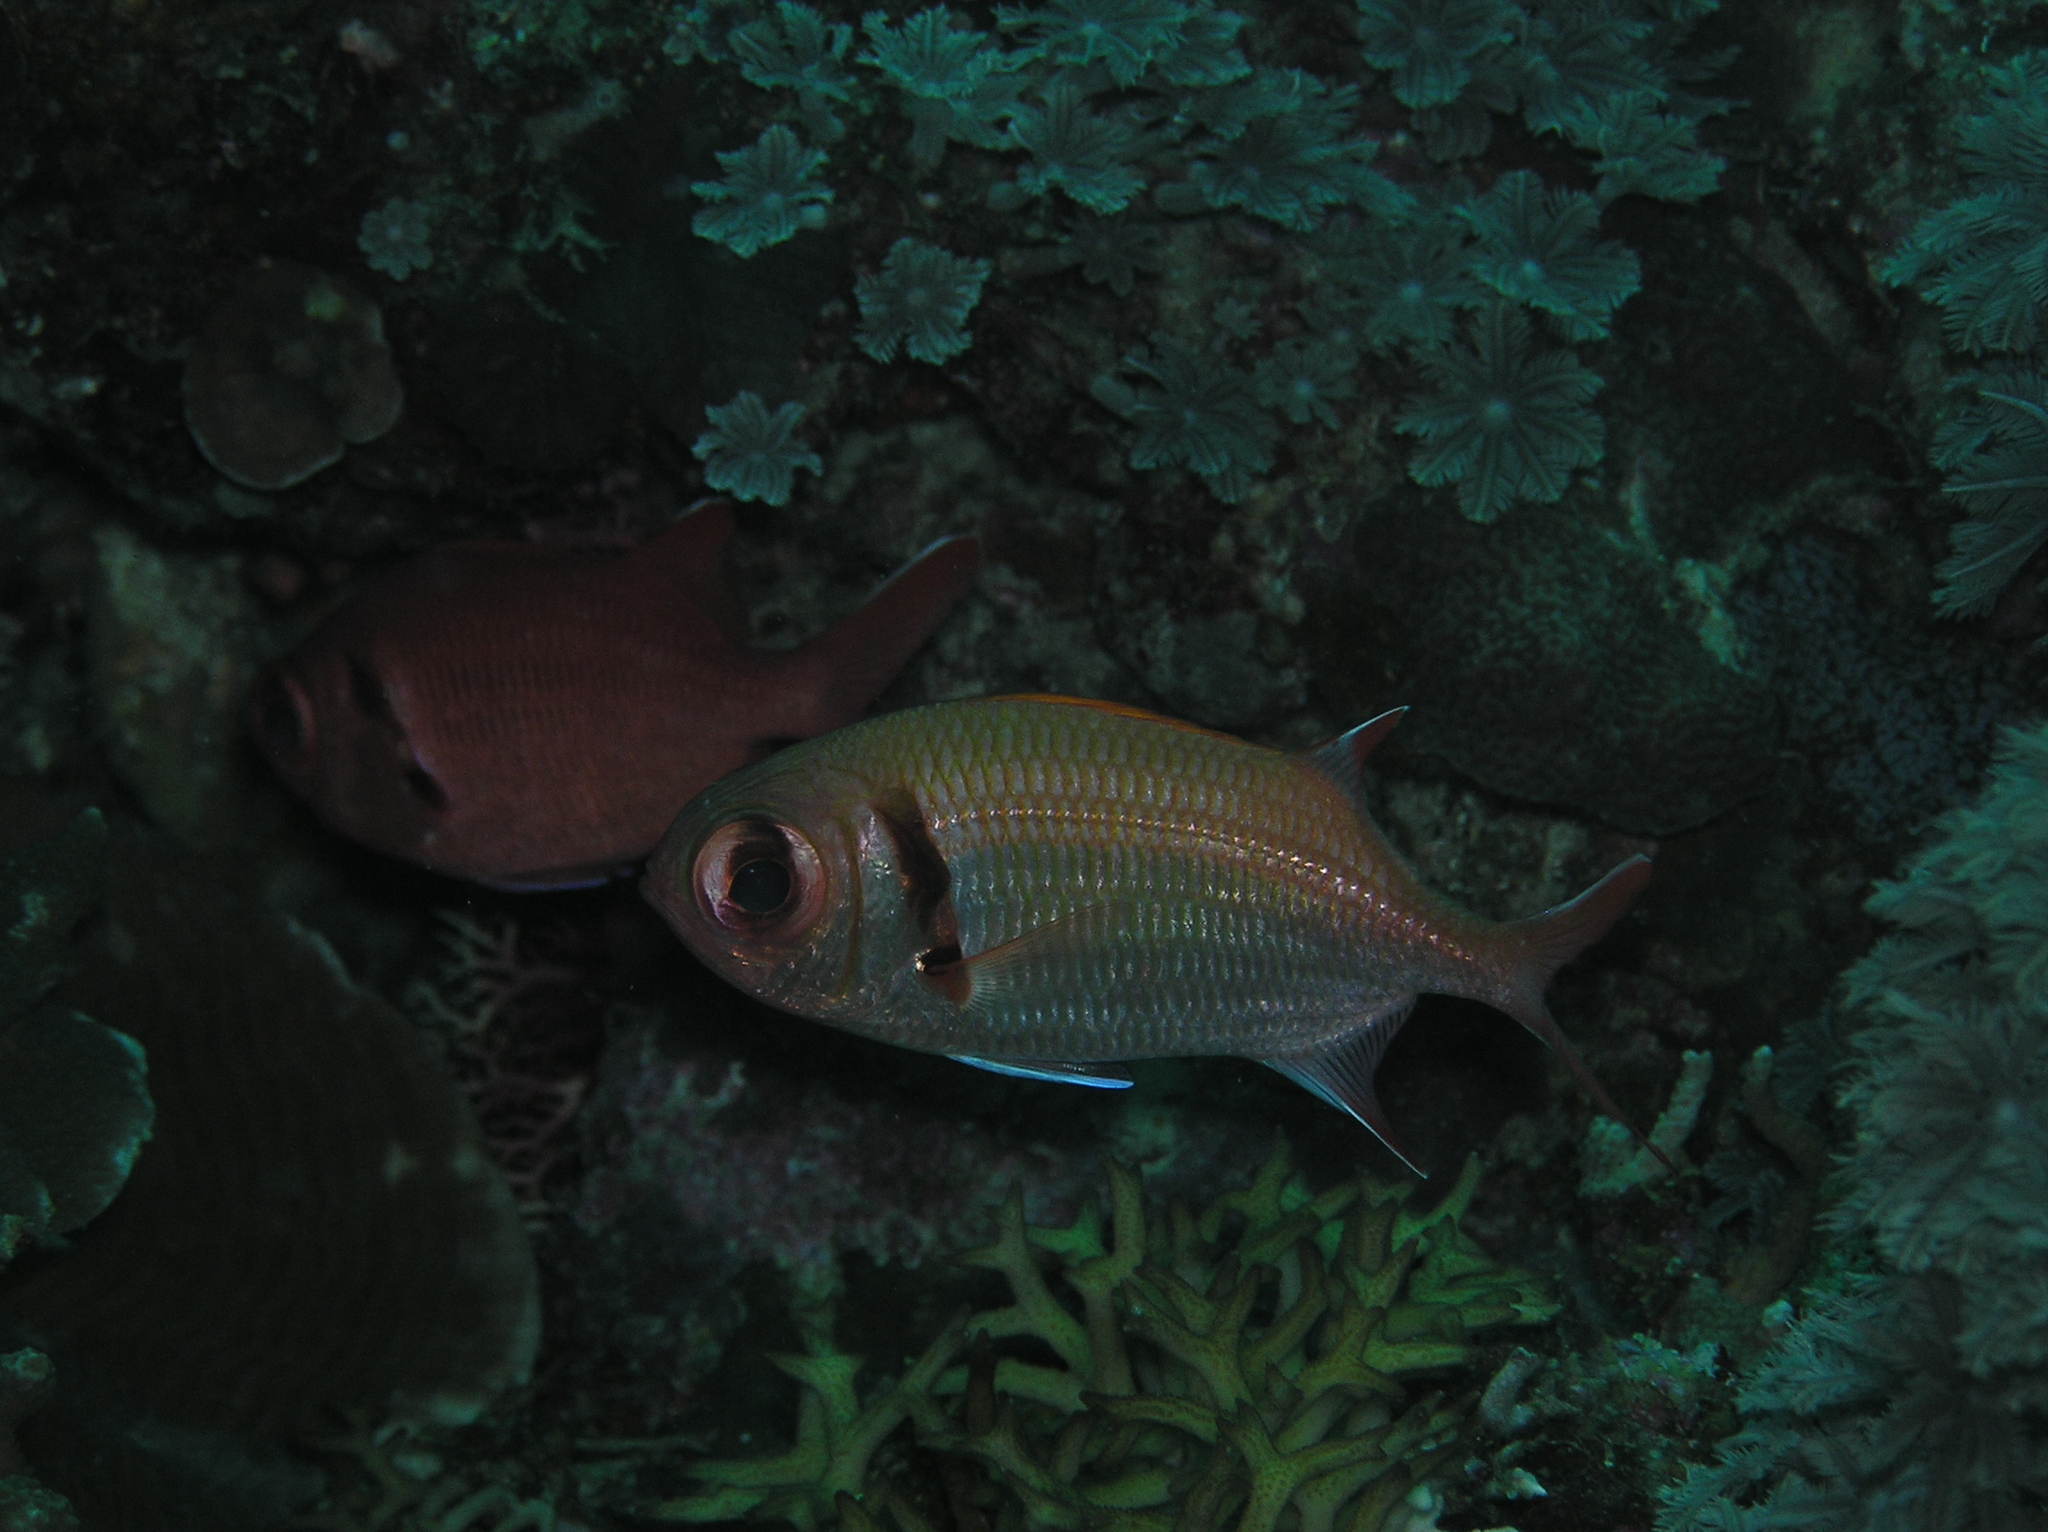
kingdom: Animalia
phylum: Chordata
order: Beryciformes
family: Holocentridae
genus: Myripristis
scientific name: Myripristis kuntee
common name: Epaulette soldierfish
